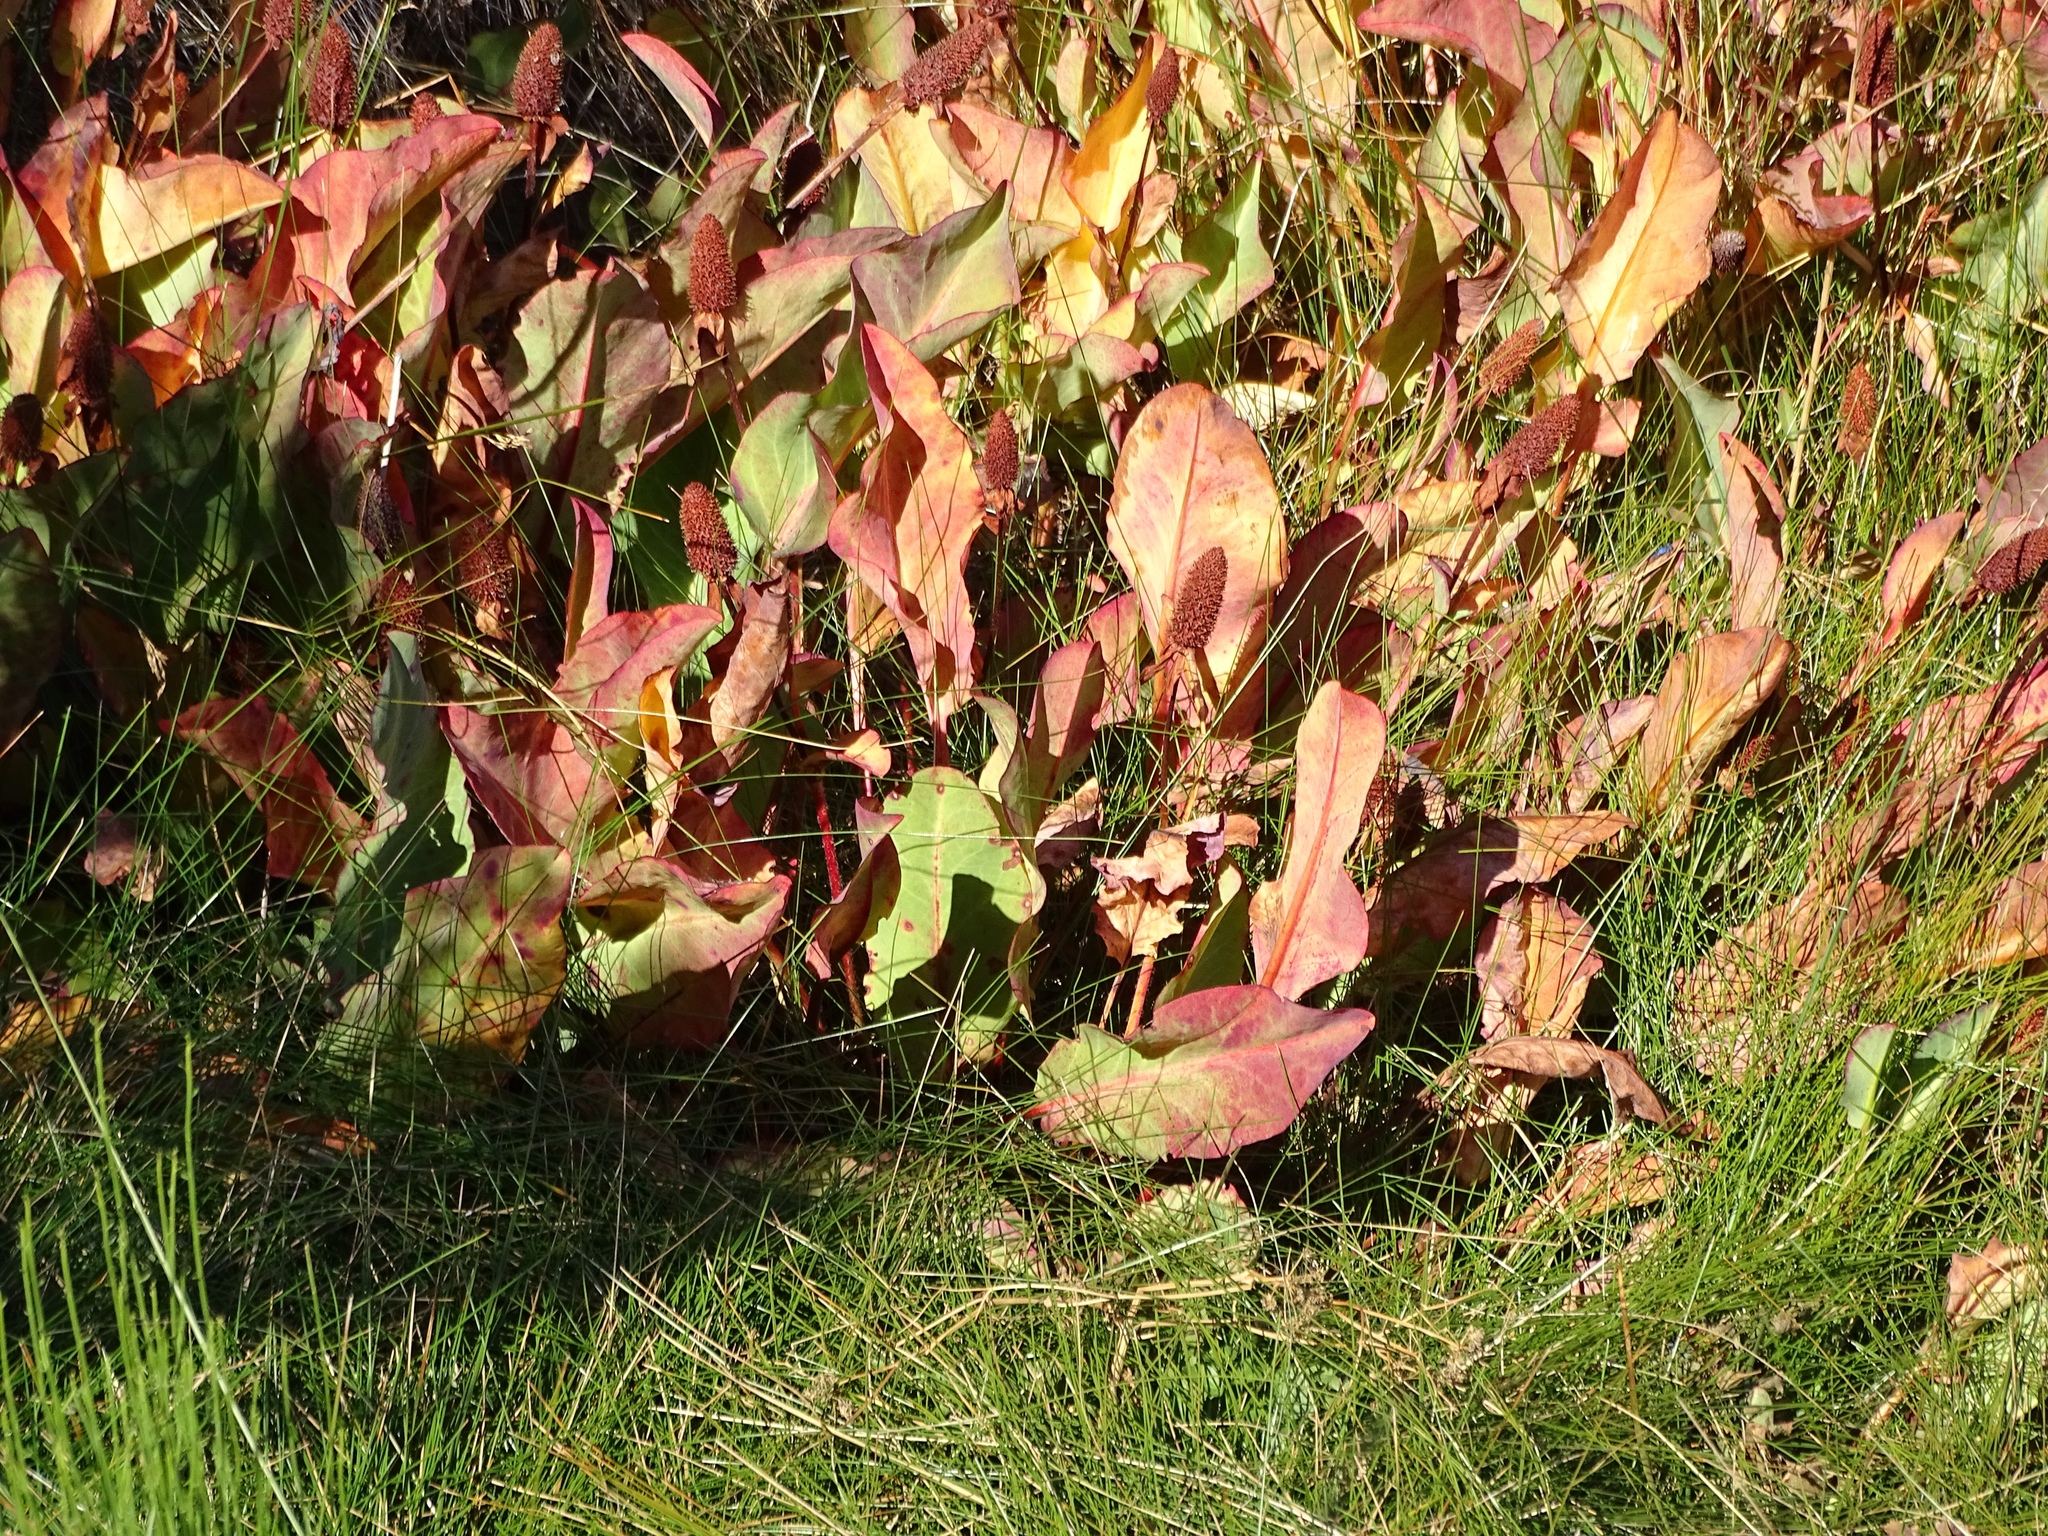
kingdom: Plantae
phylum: Tracheophyta
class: Magnoliopsida
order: Piperales
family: Saururaceae
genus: Anemopsis
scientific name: Anemopsis californica
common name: Apache-beads
